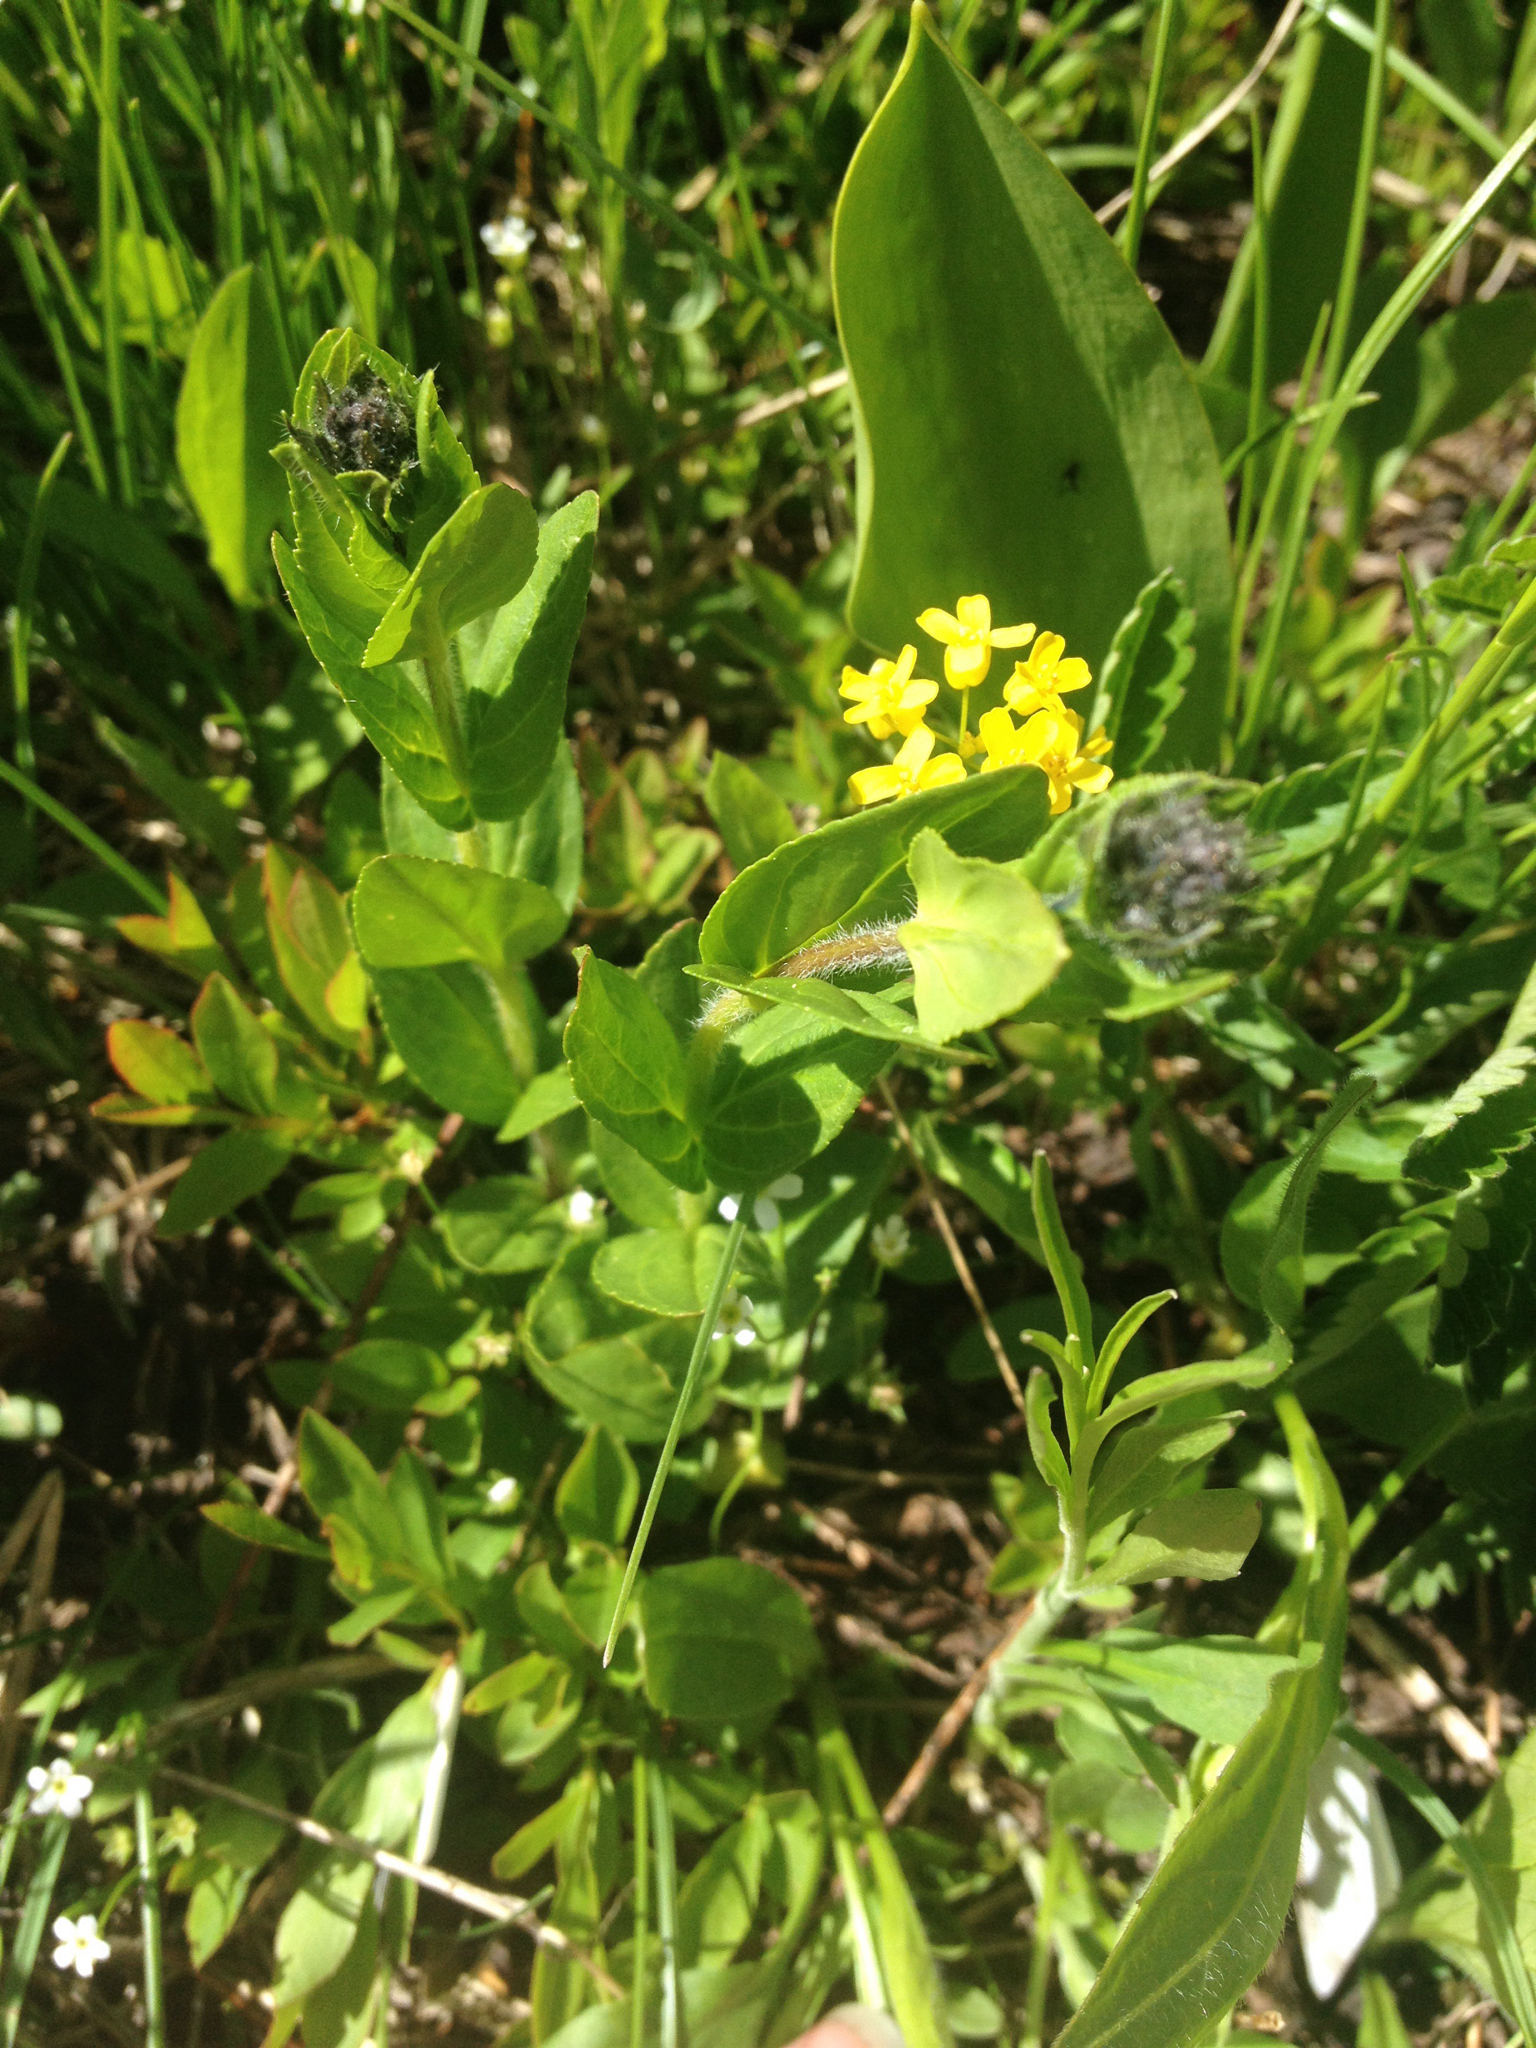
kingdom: Plantae
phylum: Tracheophyta
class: Magnoliopsida
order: Lamiales
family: Plantaginaceae
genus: Veronica
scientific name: Veronica wormskjoldii
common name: American alpine speedwell
